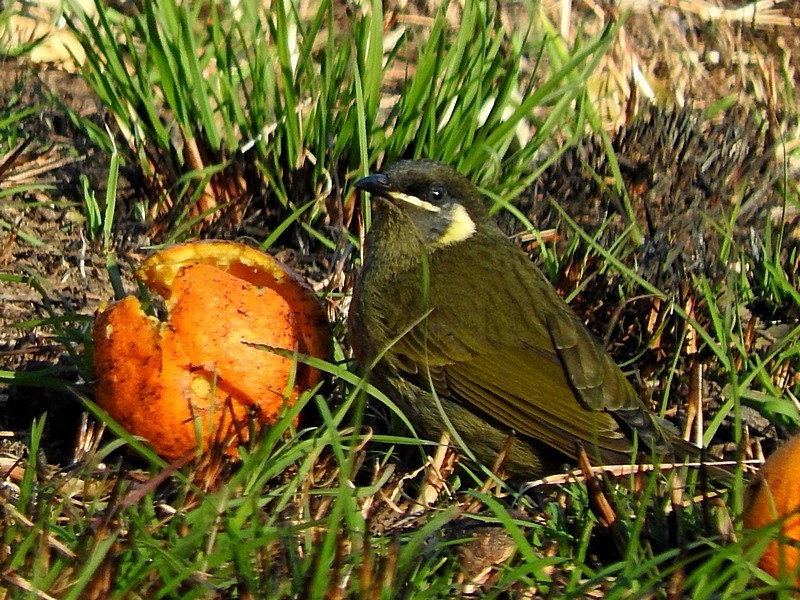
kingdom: Animalia
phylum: Chordata
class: Aves
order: Passeriformes
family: Meliphagidae
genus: Meliphaga
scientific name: Meliphaga lewinii
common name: Lewin's honeyeater
